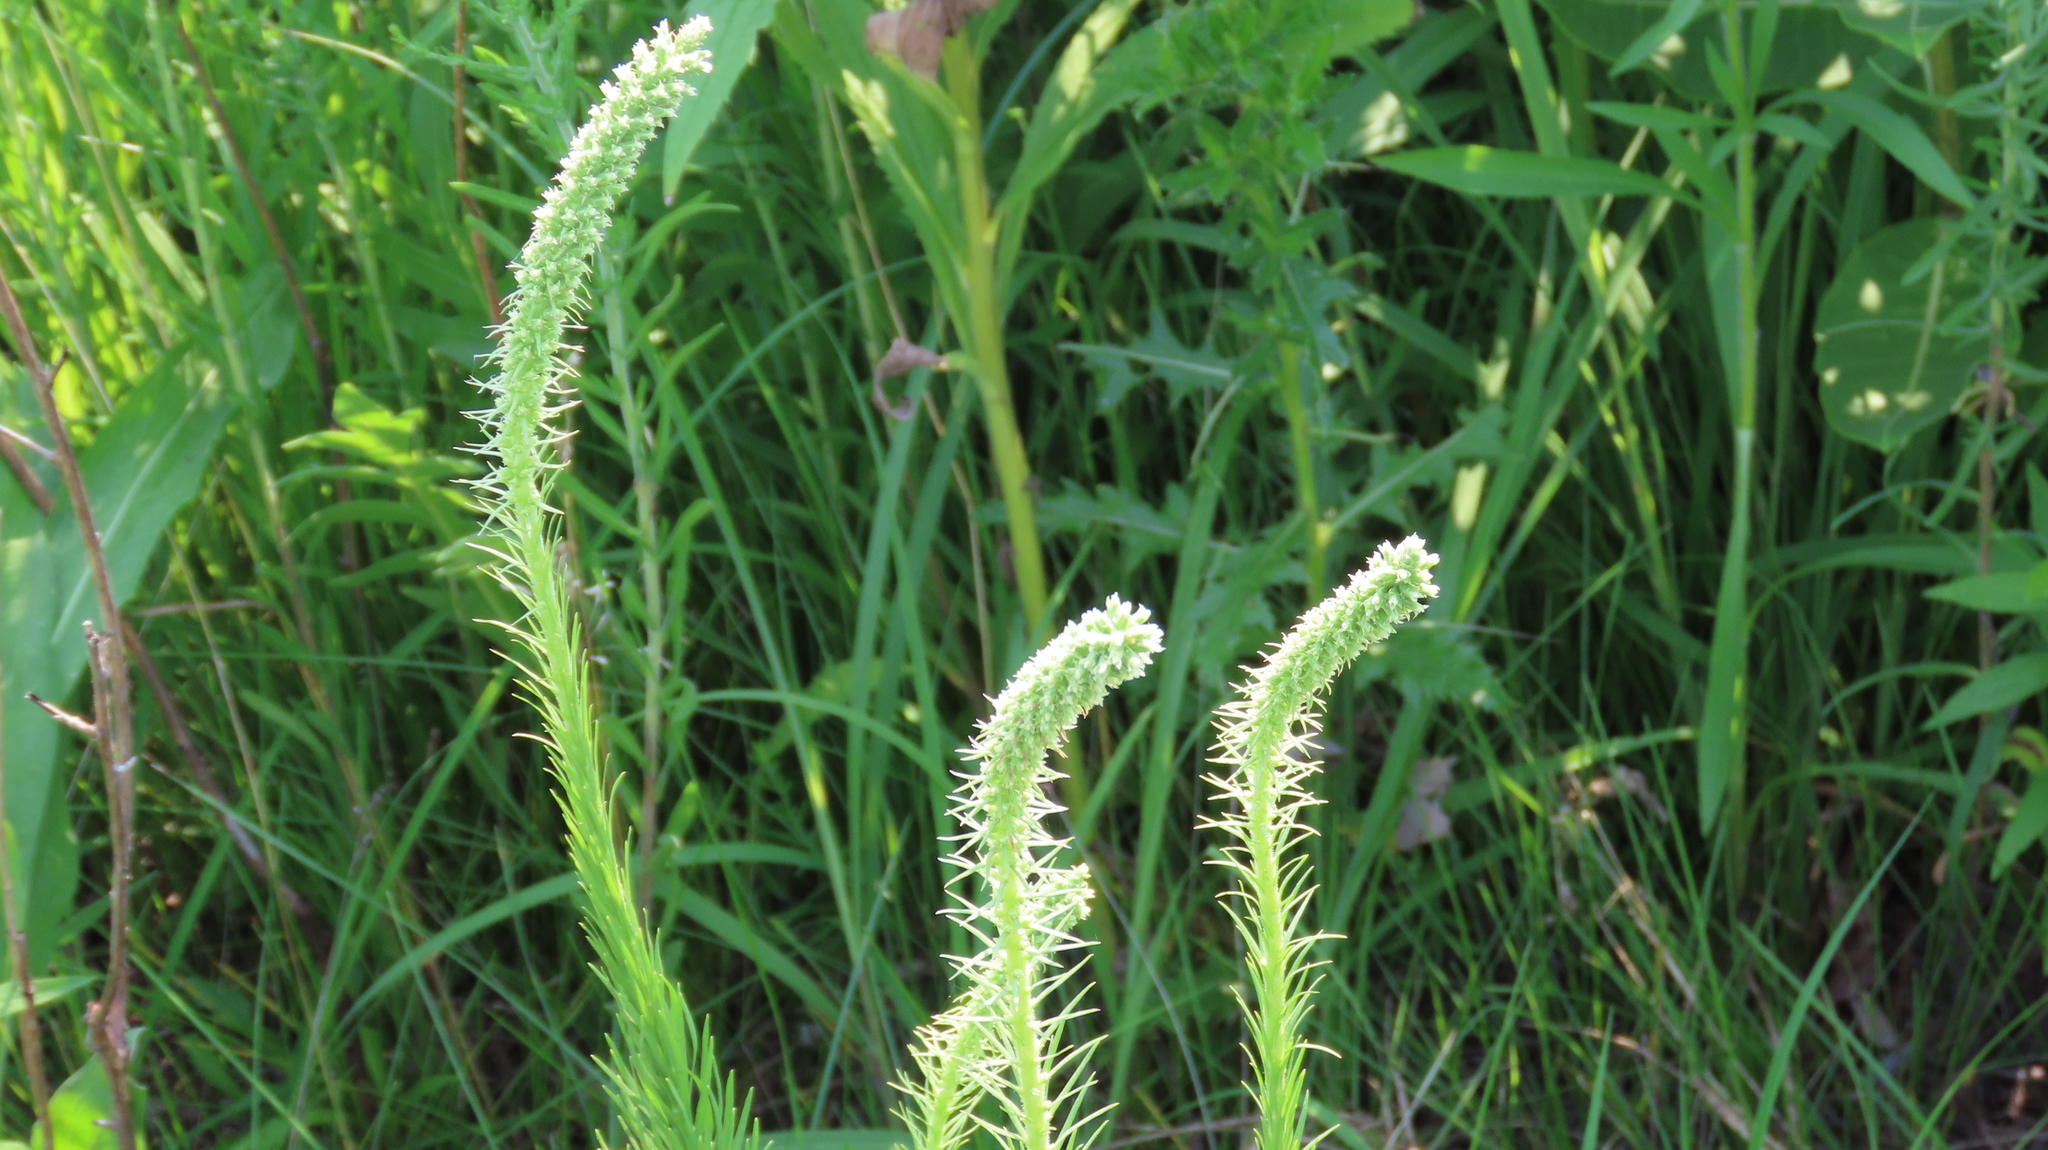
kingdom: Plantae
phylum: Tracheophyta
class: Magnoliopsida
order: Asterales
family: Asteraceae
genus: Liatris
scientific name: Liatris pycnostachya
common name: Cattail gayfeather
